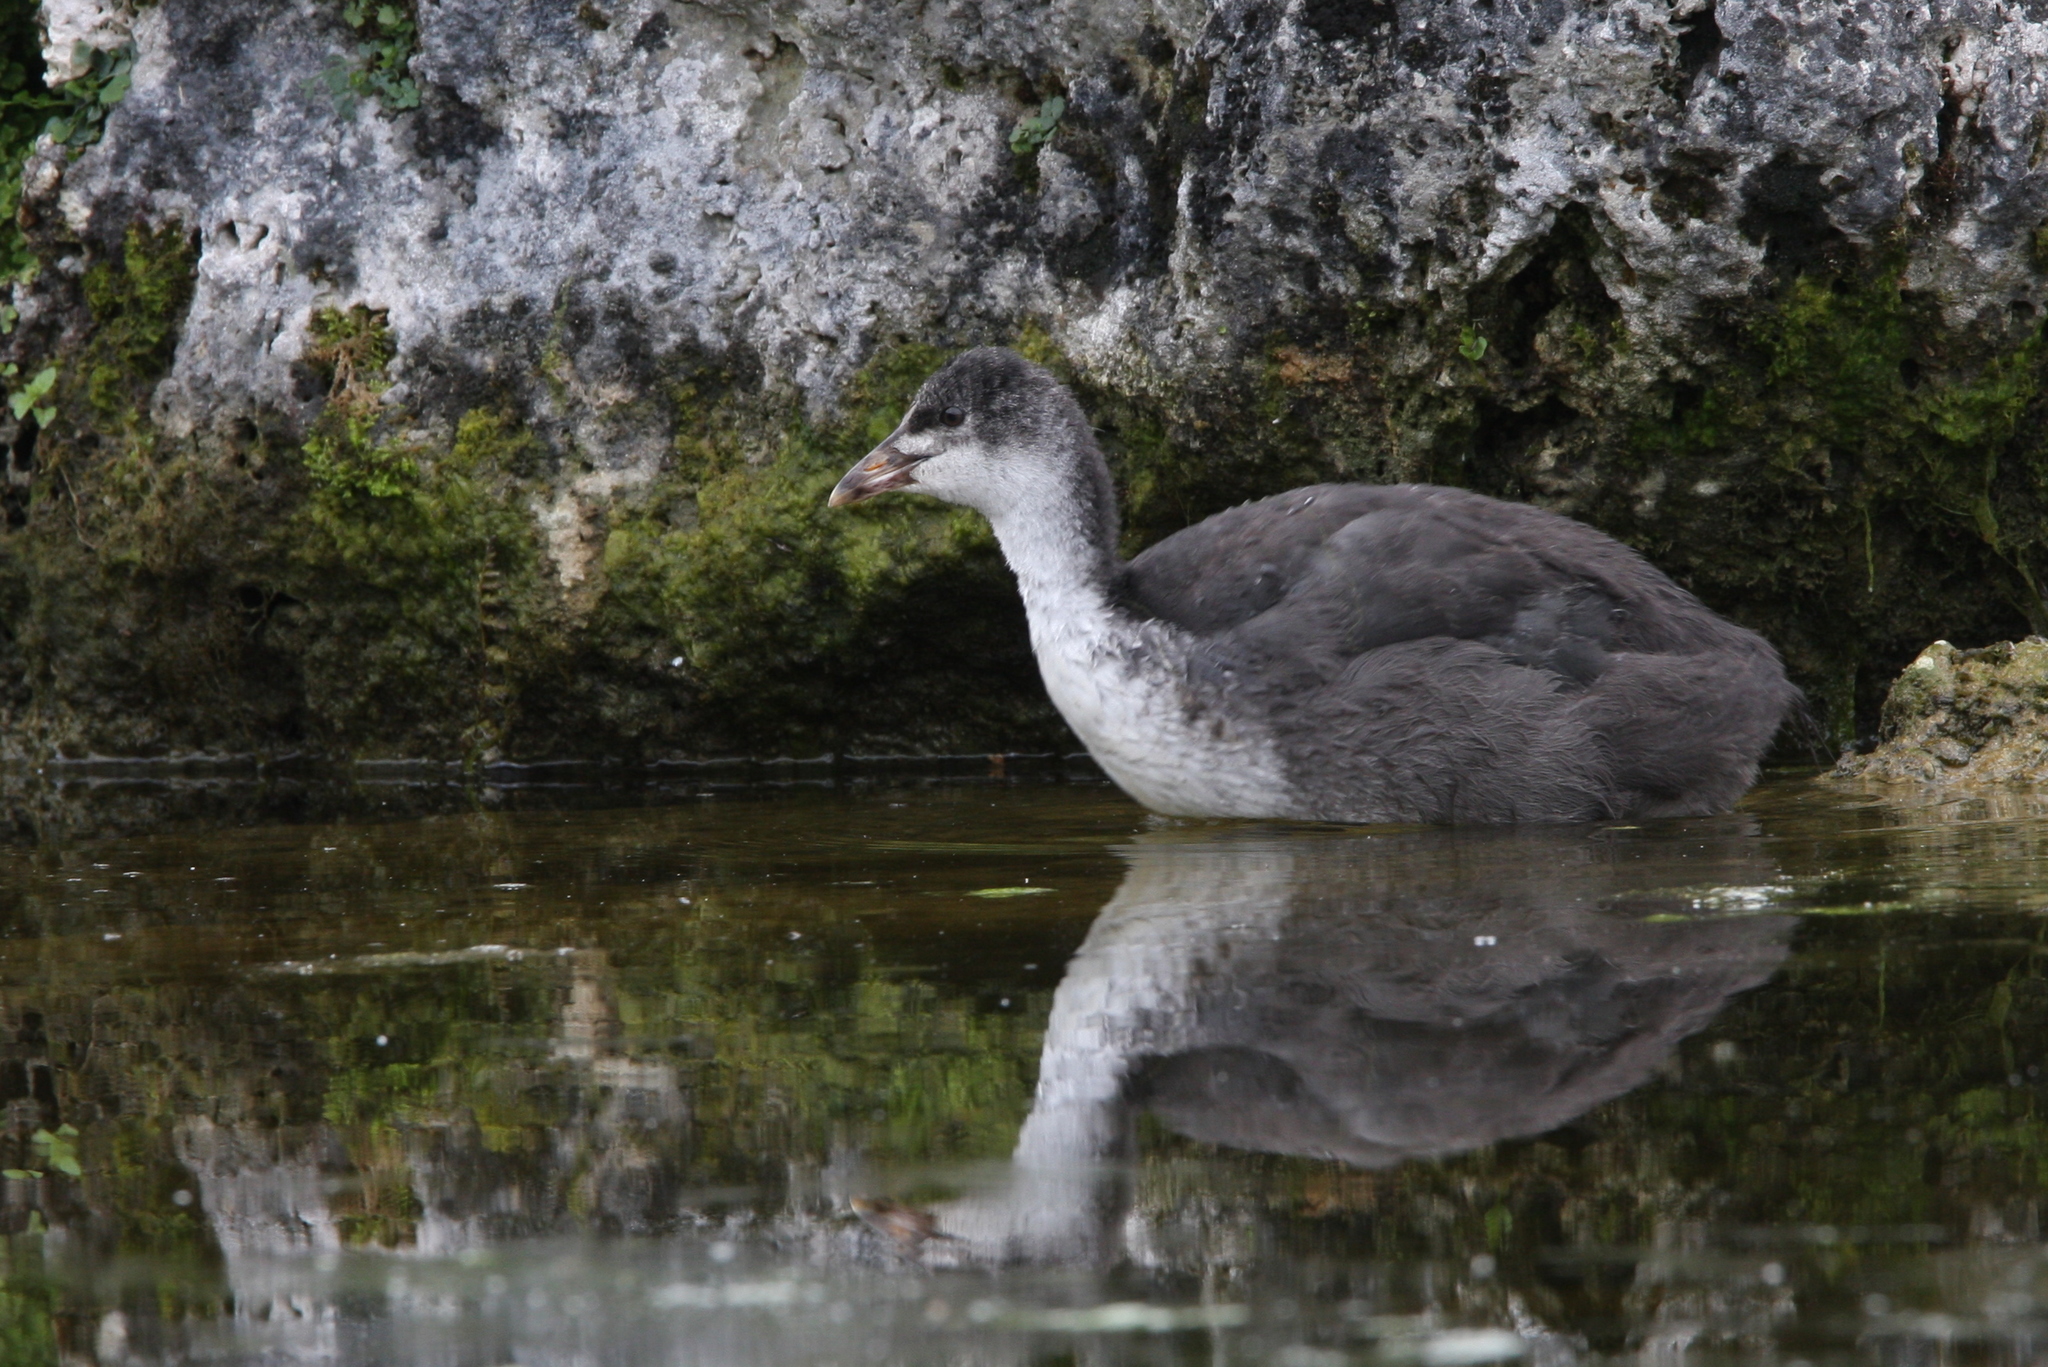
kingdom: Animalia
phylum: Chordata
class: Aves
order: Gruiformes
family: Rallidae
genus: Fulica
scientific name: Fulica atra
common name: Eurasian coot
